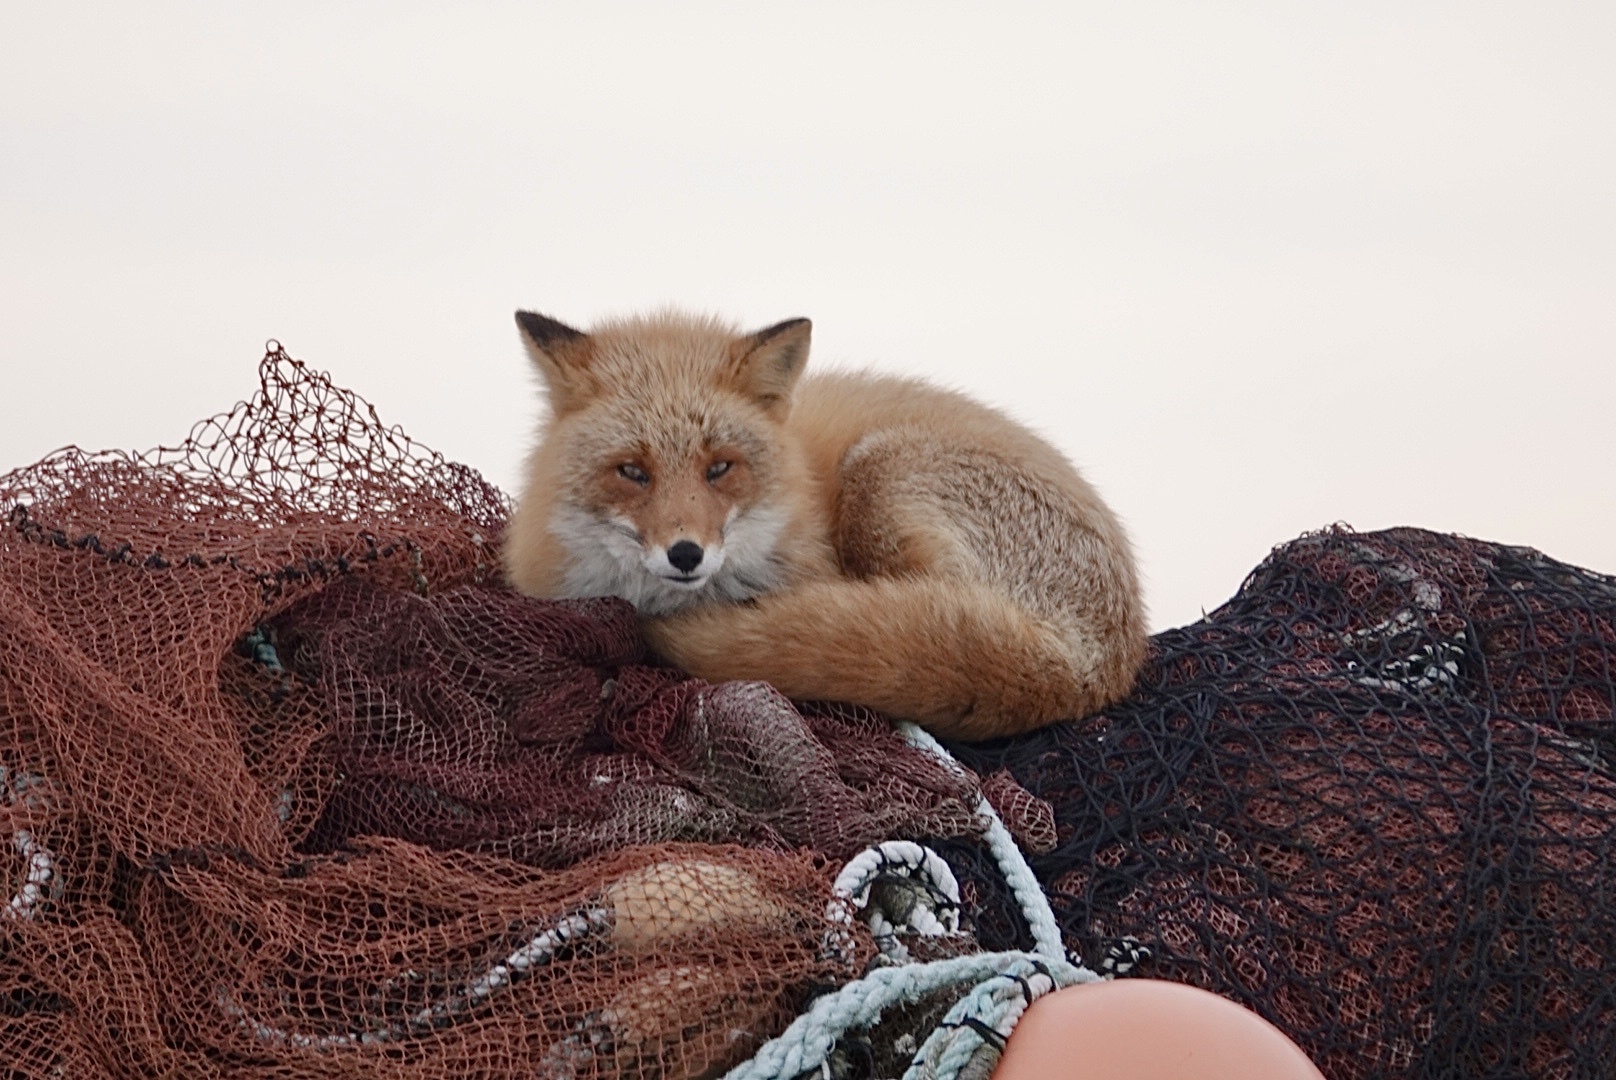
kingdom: Animalia
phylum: Chordata
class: Mammalia
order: Carnivora
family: Canidae
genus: Vulpes
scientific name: Vulpes vulpes
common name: Red fox
